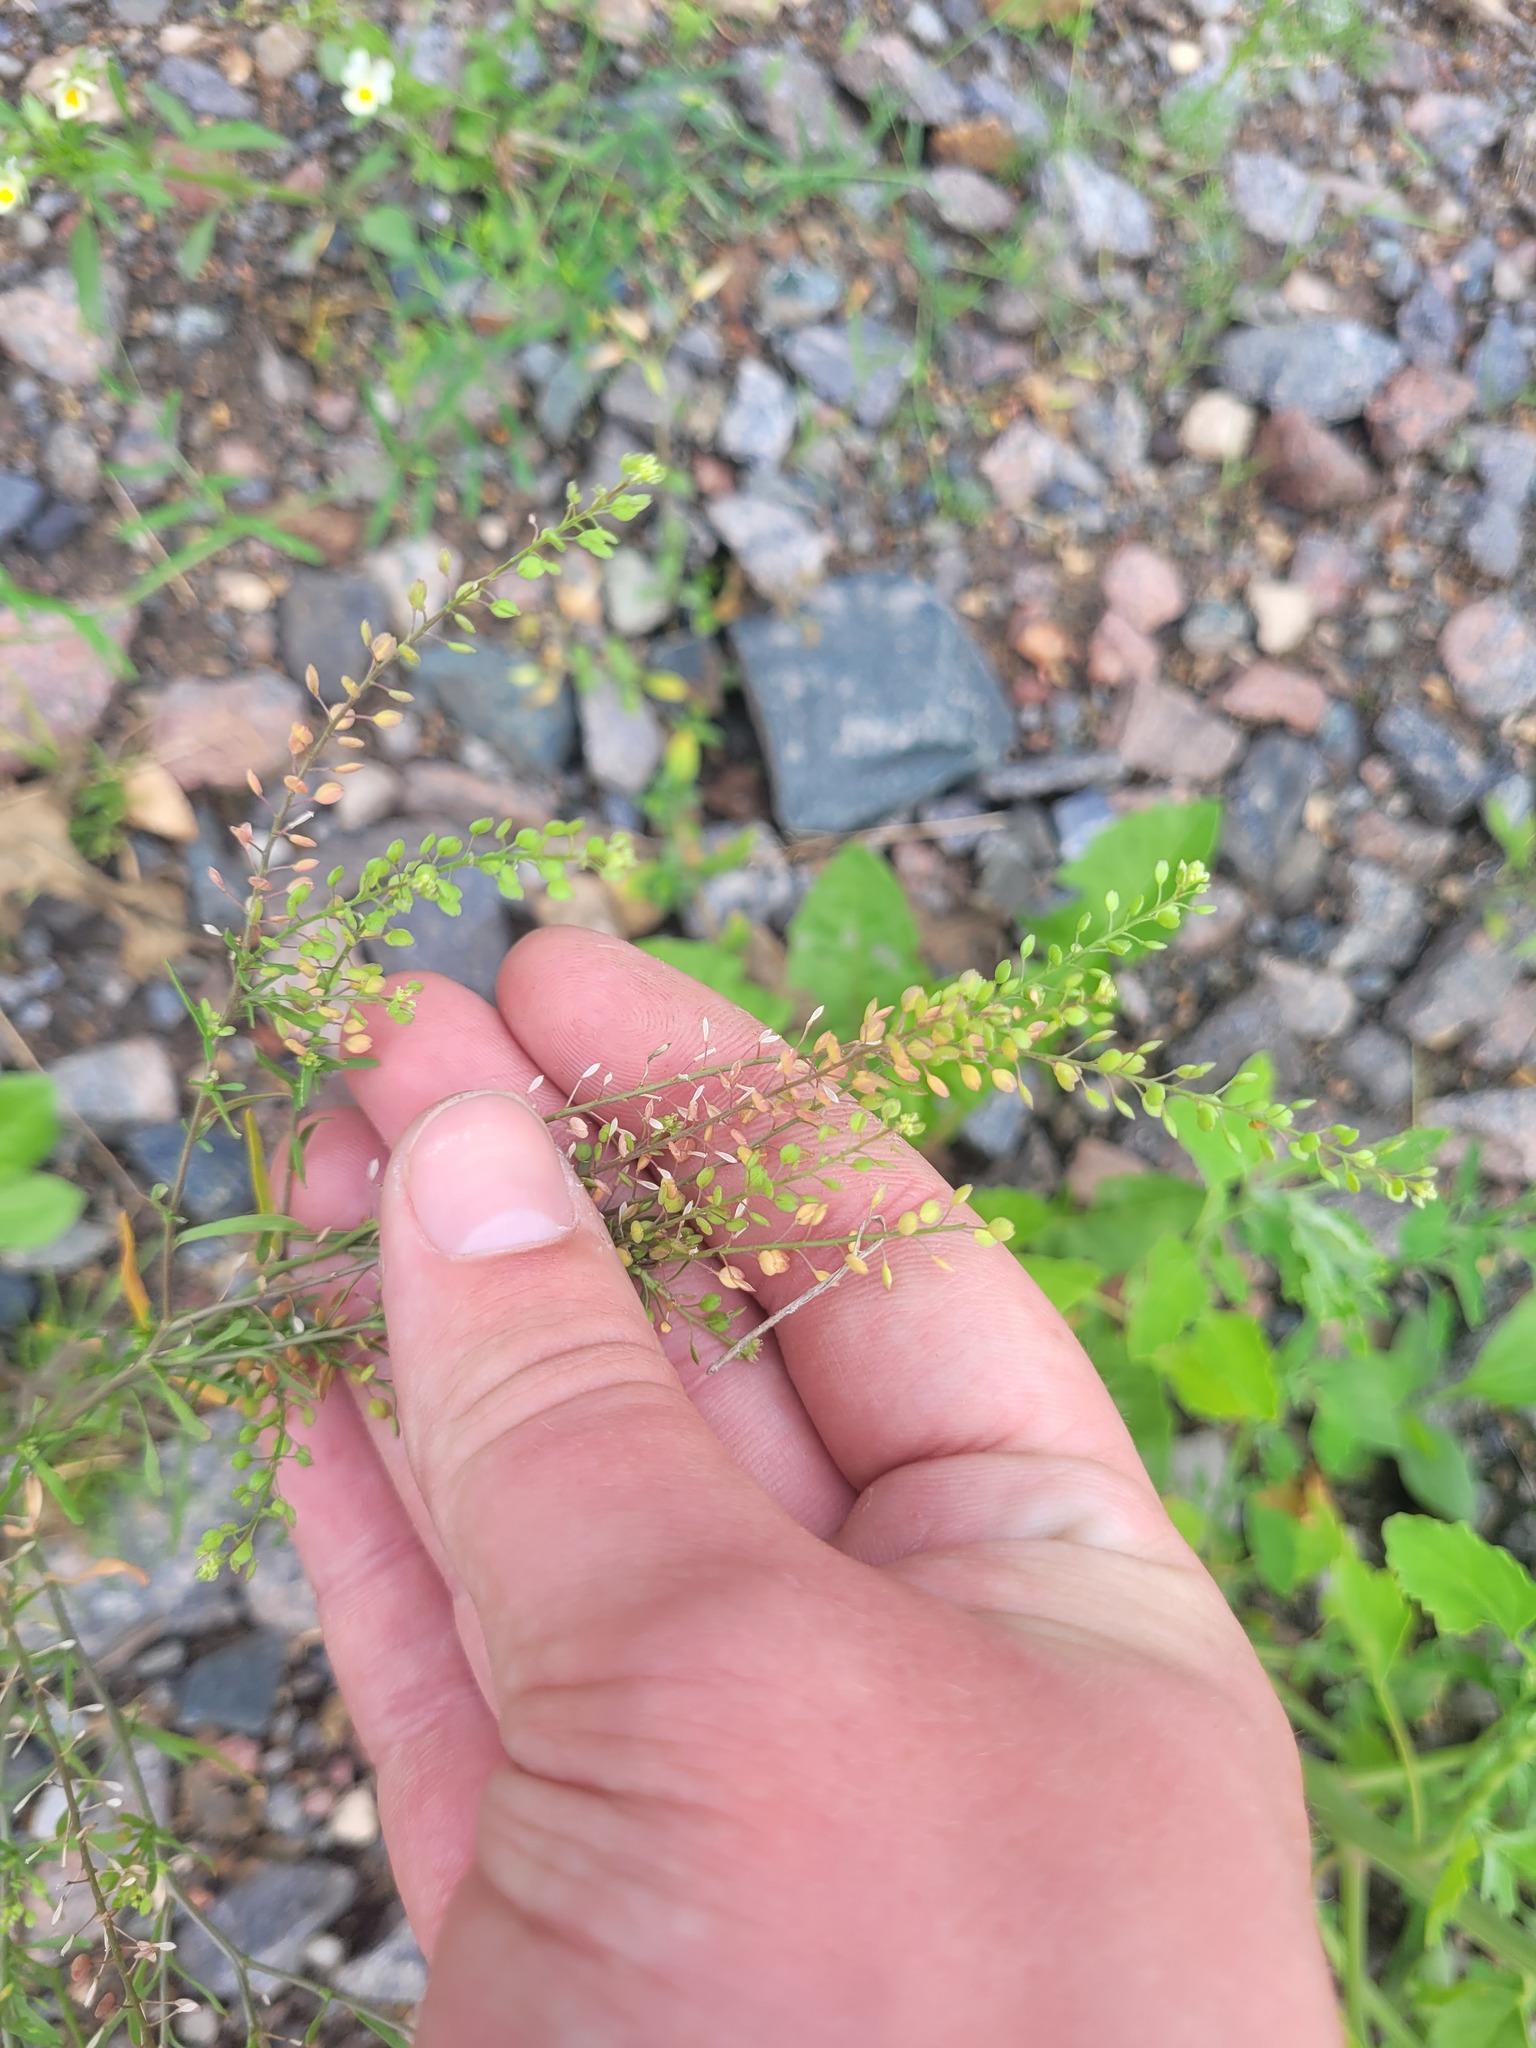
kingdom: Plantae
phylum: Tracheophyta
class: Magnoliopsida
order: Brassicales
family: Brassicaceae
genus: Lepidium
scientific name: Lepidium ruderale
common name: Narrow-leaved pepperwort
